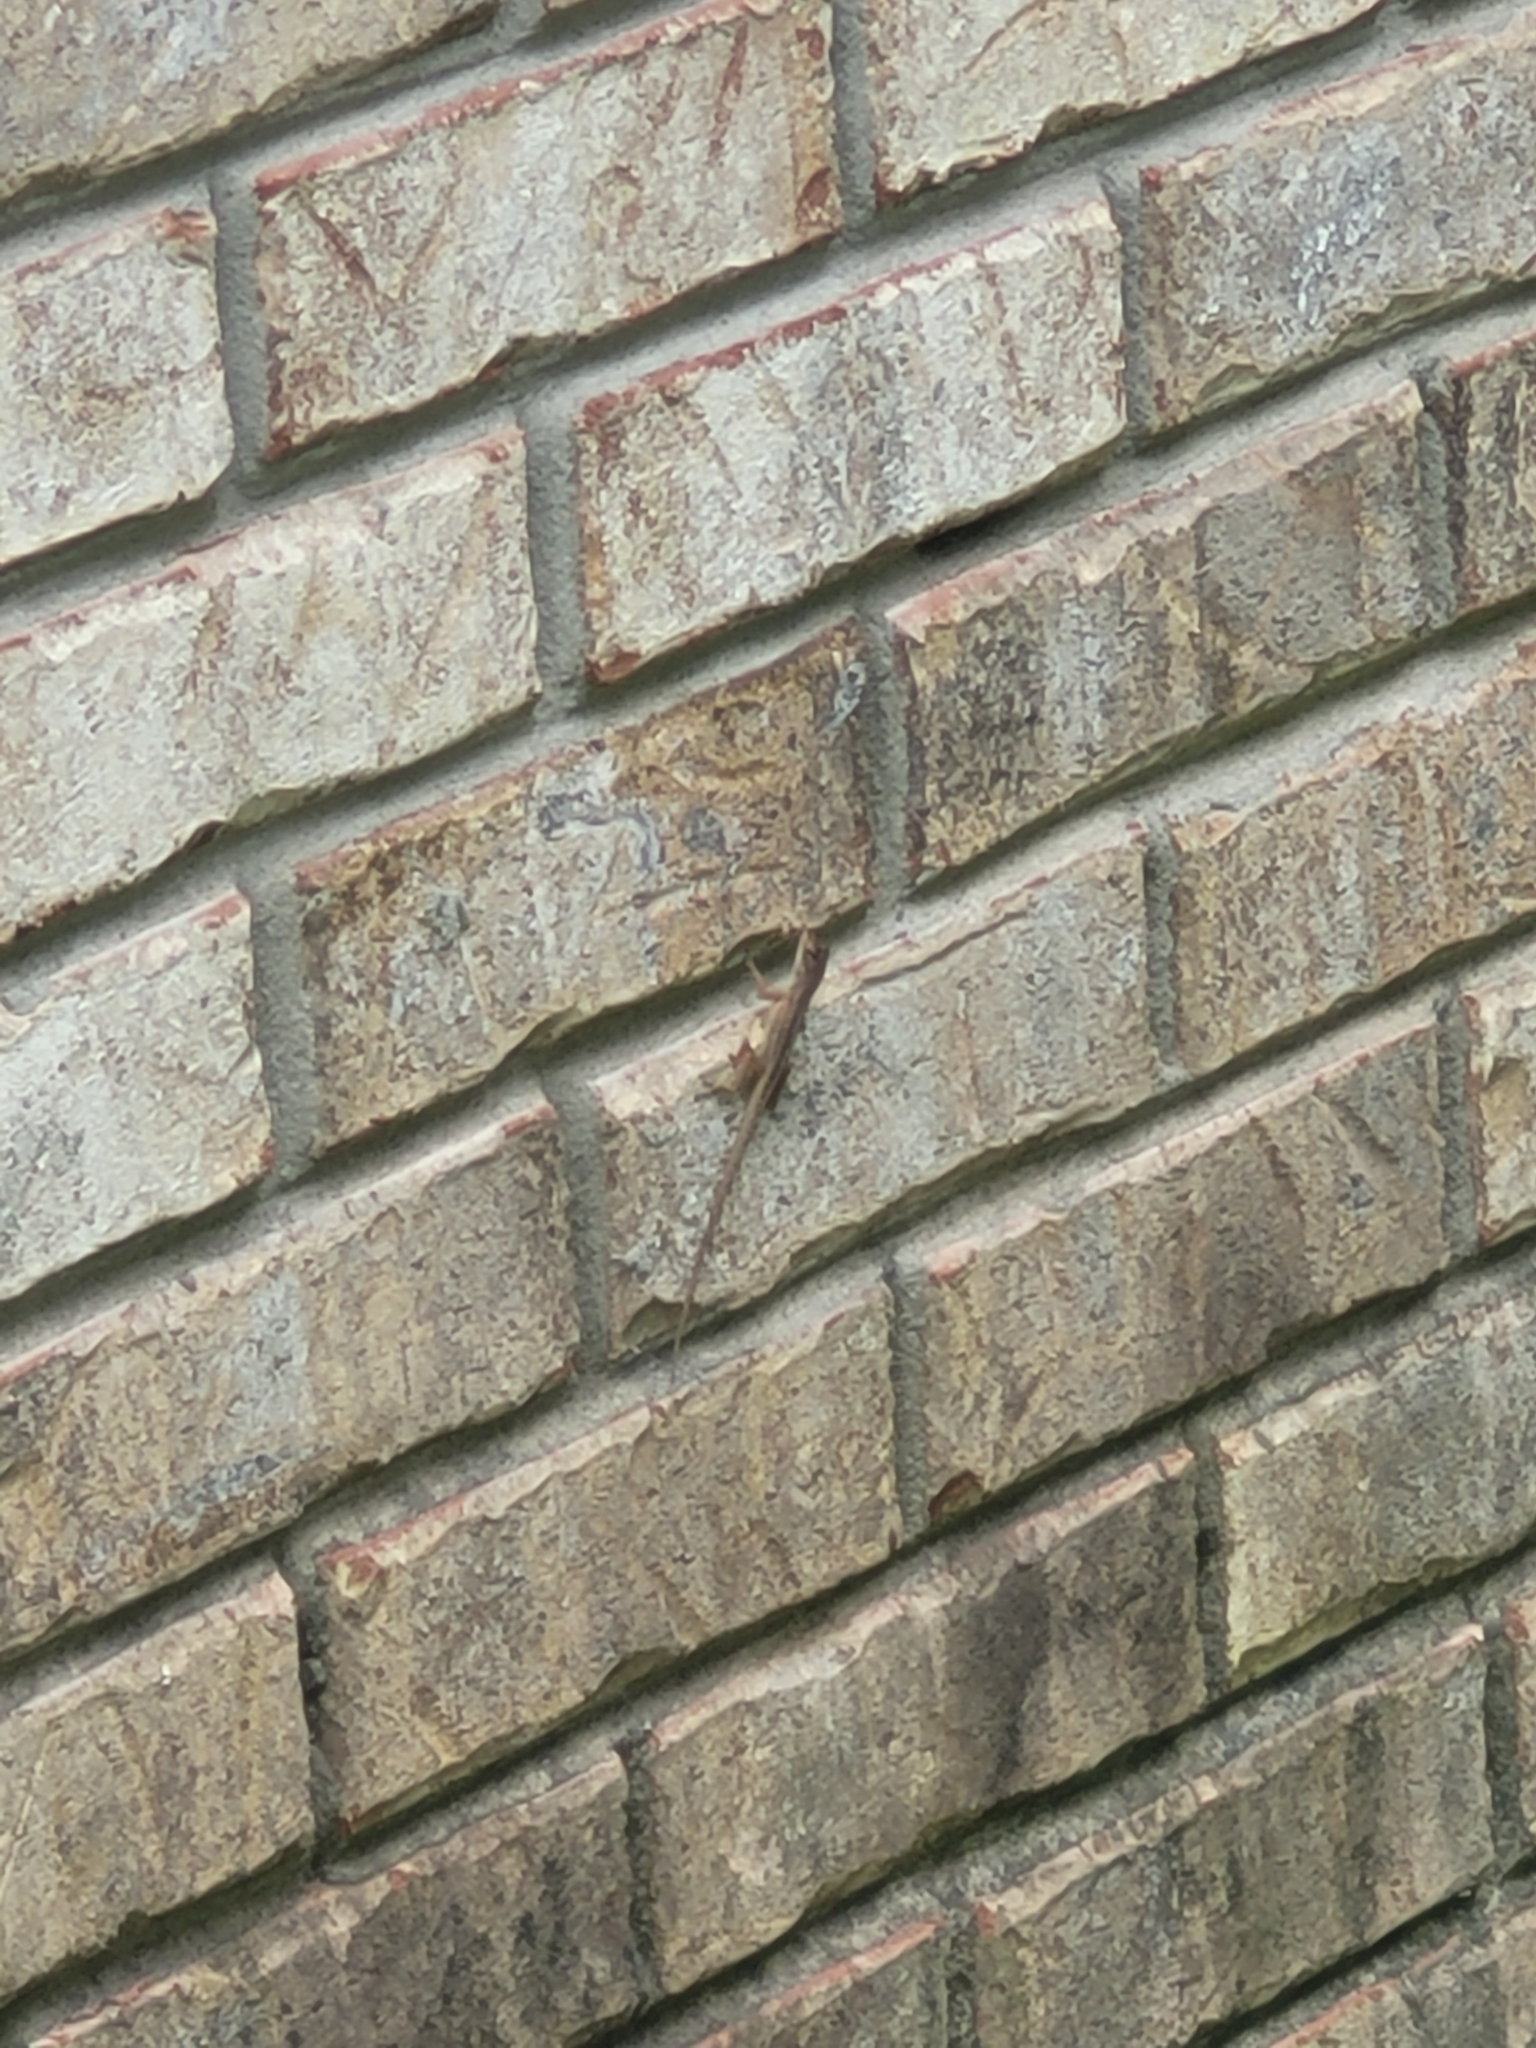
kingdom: Animalia
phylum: Chordata
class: Squamata
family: Dactyloidae
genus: Anolis
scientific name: Anolis sagrei
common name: Brown anole
